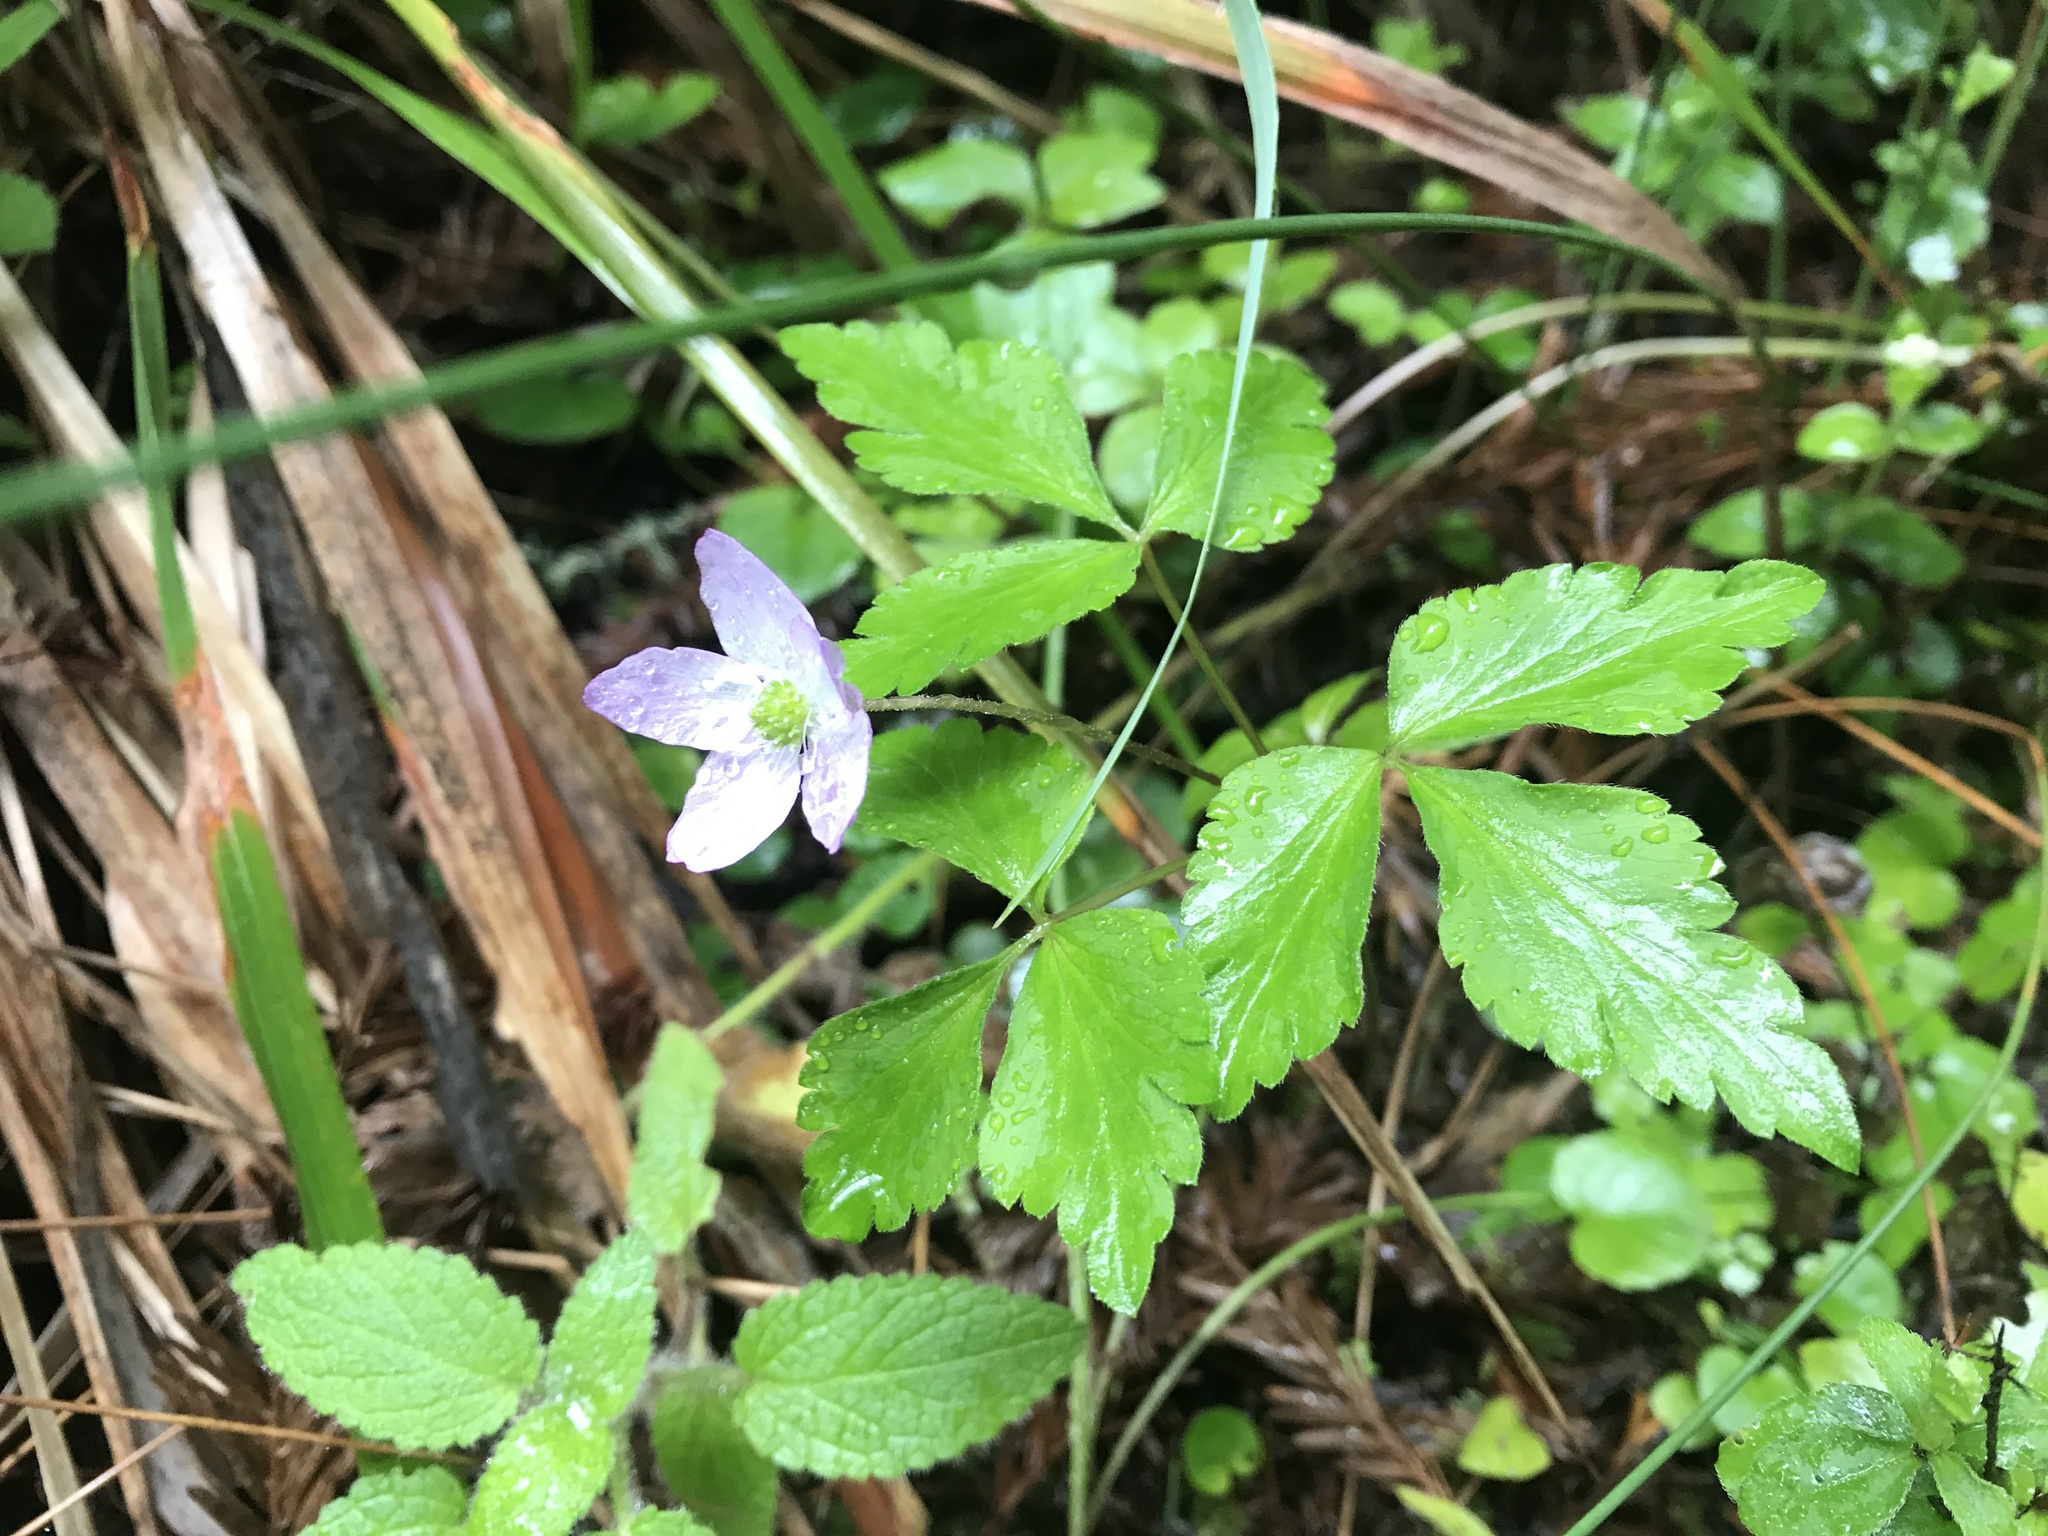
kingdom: Plantae
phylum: Tracheophyta
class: Magnoliopsida
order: Ranunculales
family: Ranunculaceae
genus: Anemone
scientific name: Anemone oregana
